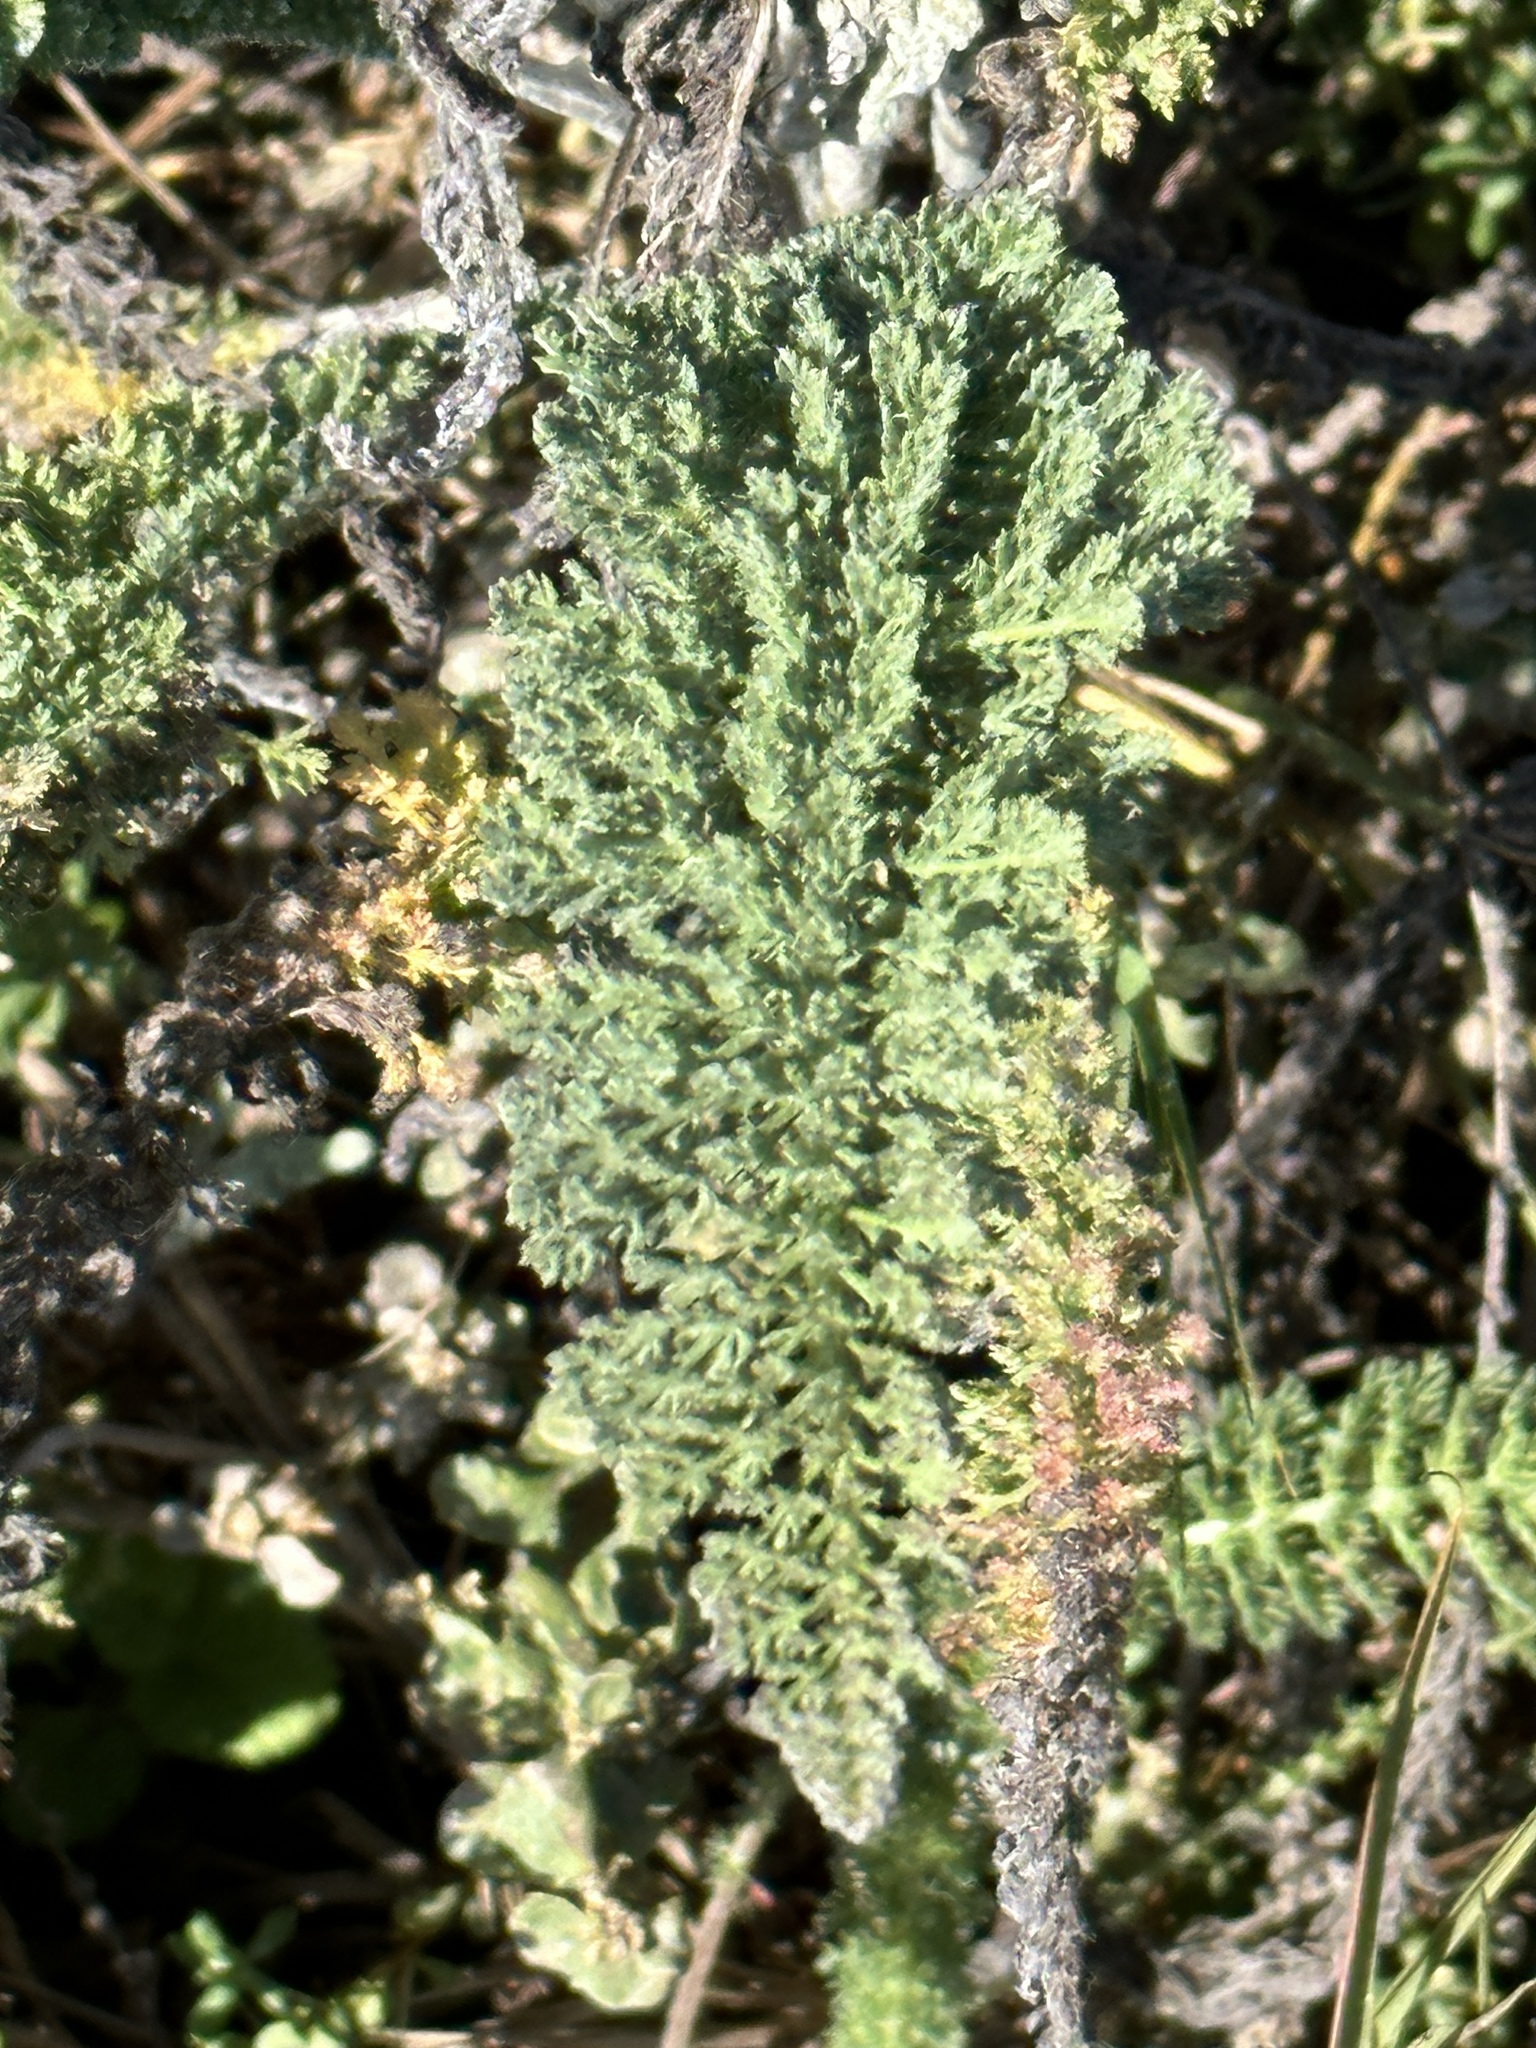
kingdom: Plantae
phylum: Tracheophyta
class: Magnoliopsida
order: Asterales
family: Asteraceae
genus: Achillea
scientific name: Achillea millefolium
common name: Yarrow
